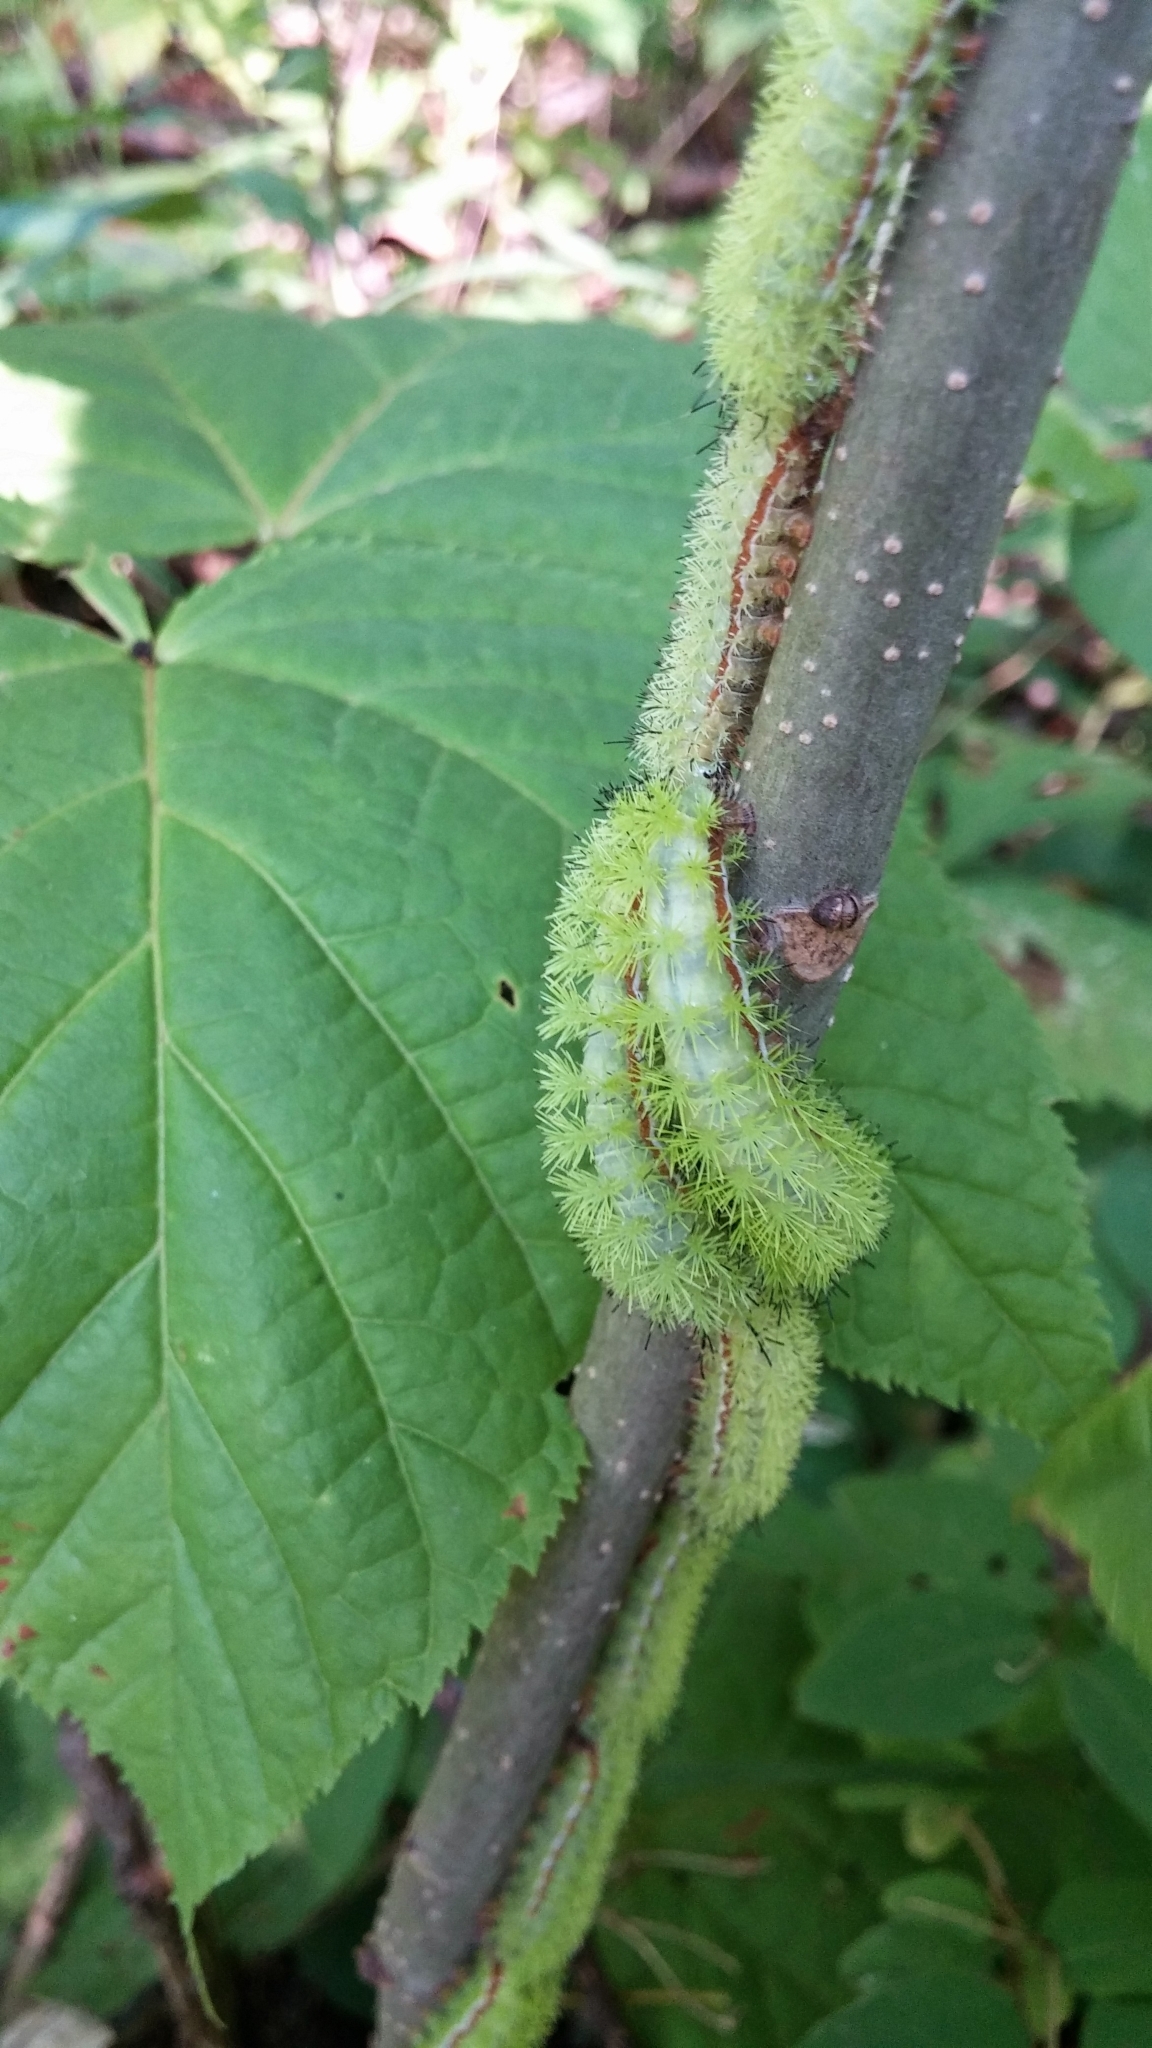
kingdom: Animalia
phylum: Arthropoda
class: Insecta
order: Lepidoptera
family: Saturniidae
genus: Automeris
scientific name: Automeris io
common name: Io moth
